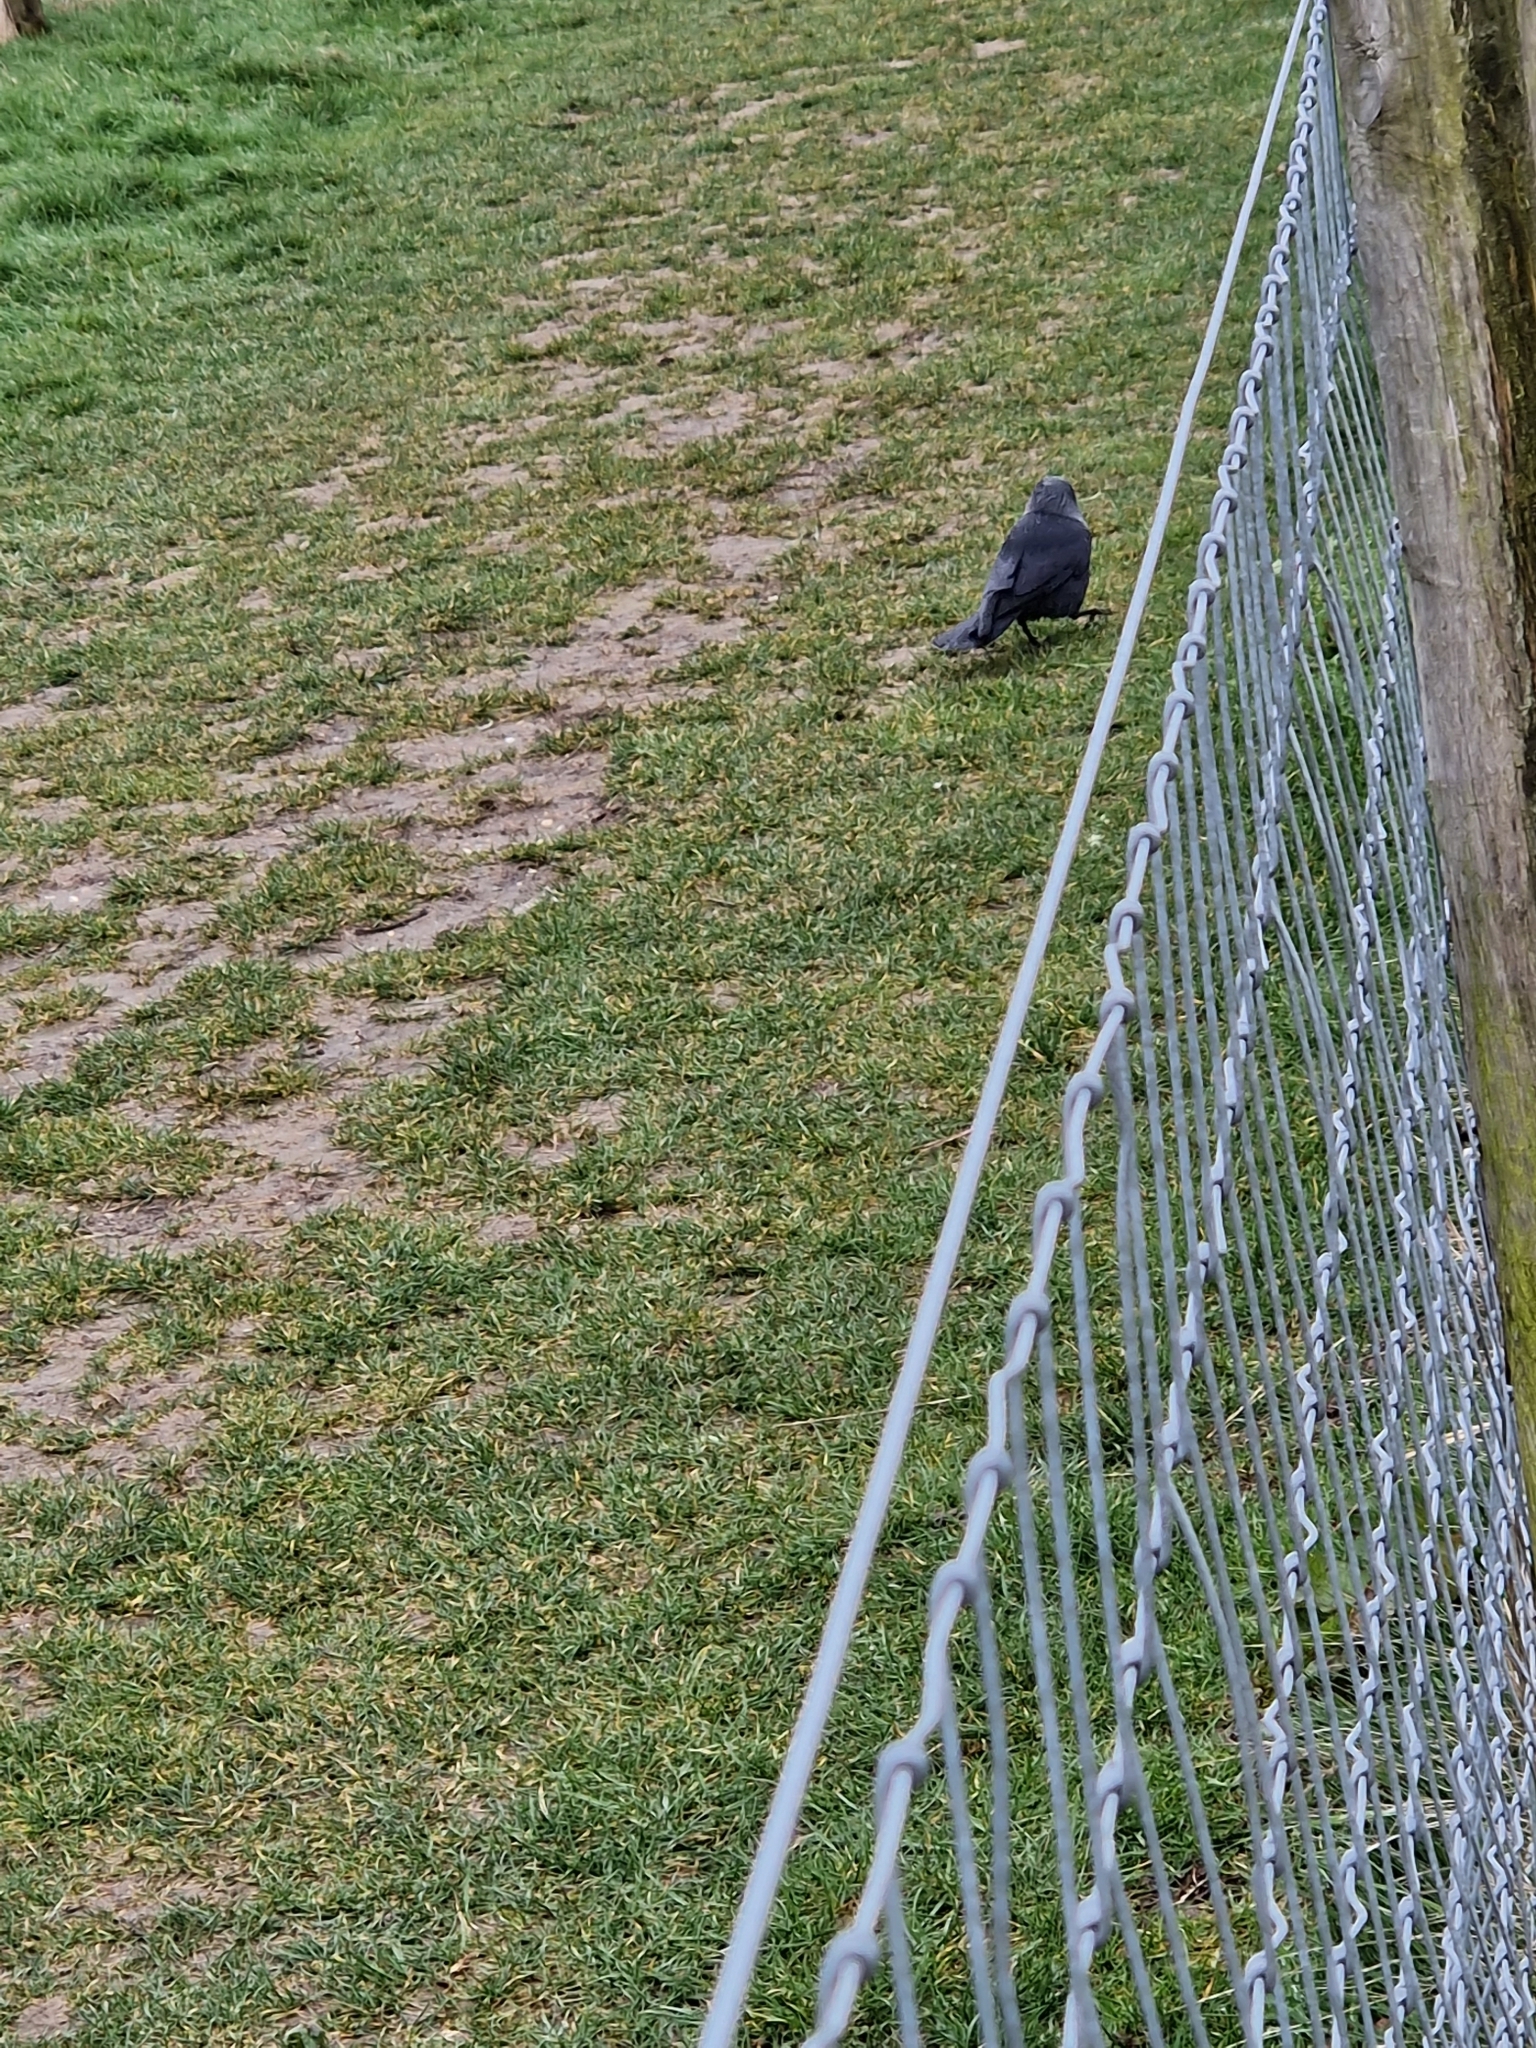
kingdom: Animalia
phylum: Chordata
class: Aves
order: Passeriformes
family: Corvidae
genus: Coloeus
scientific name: Coloeus monedula
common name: Western jackdaw
